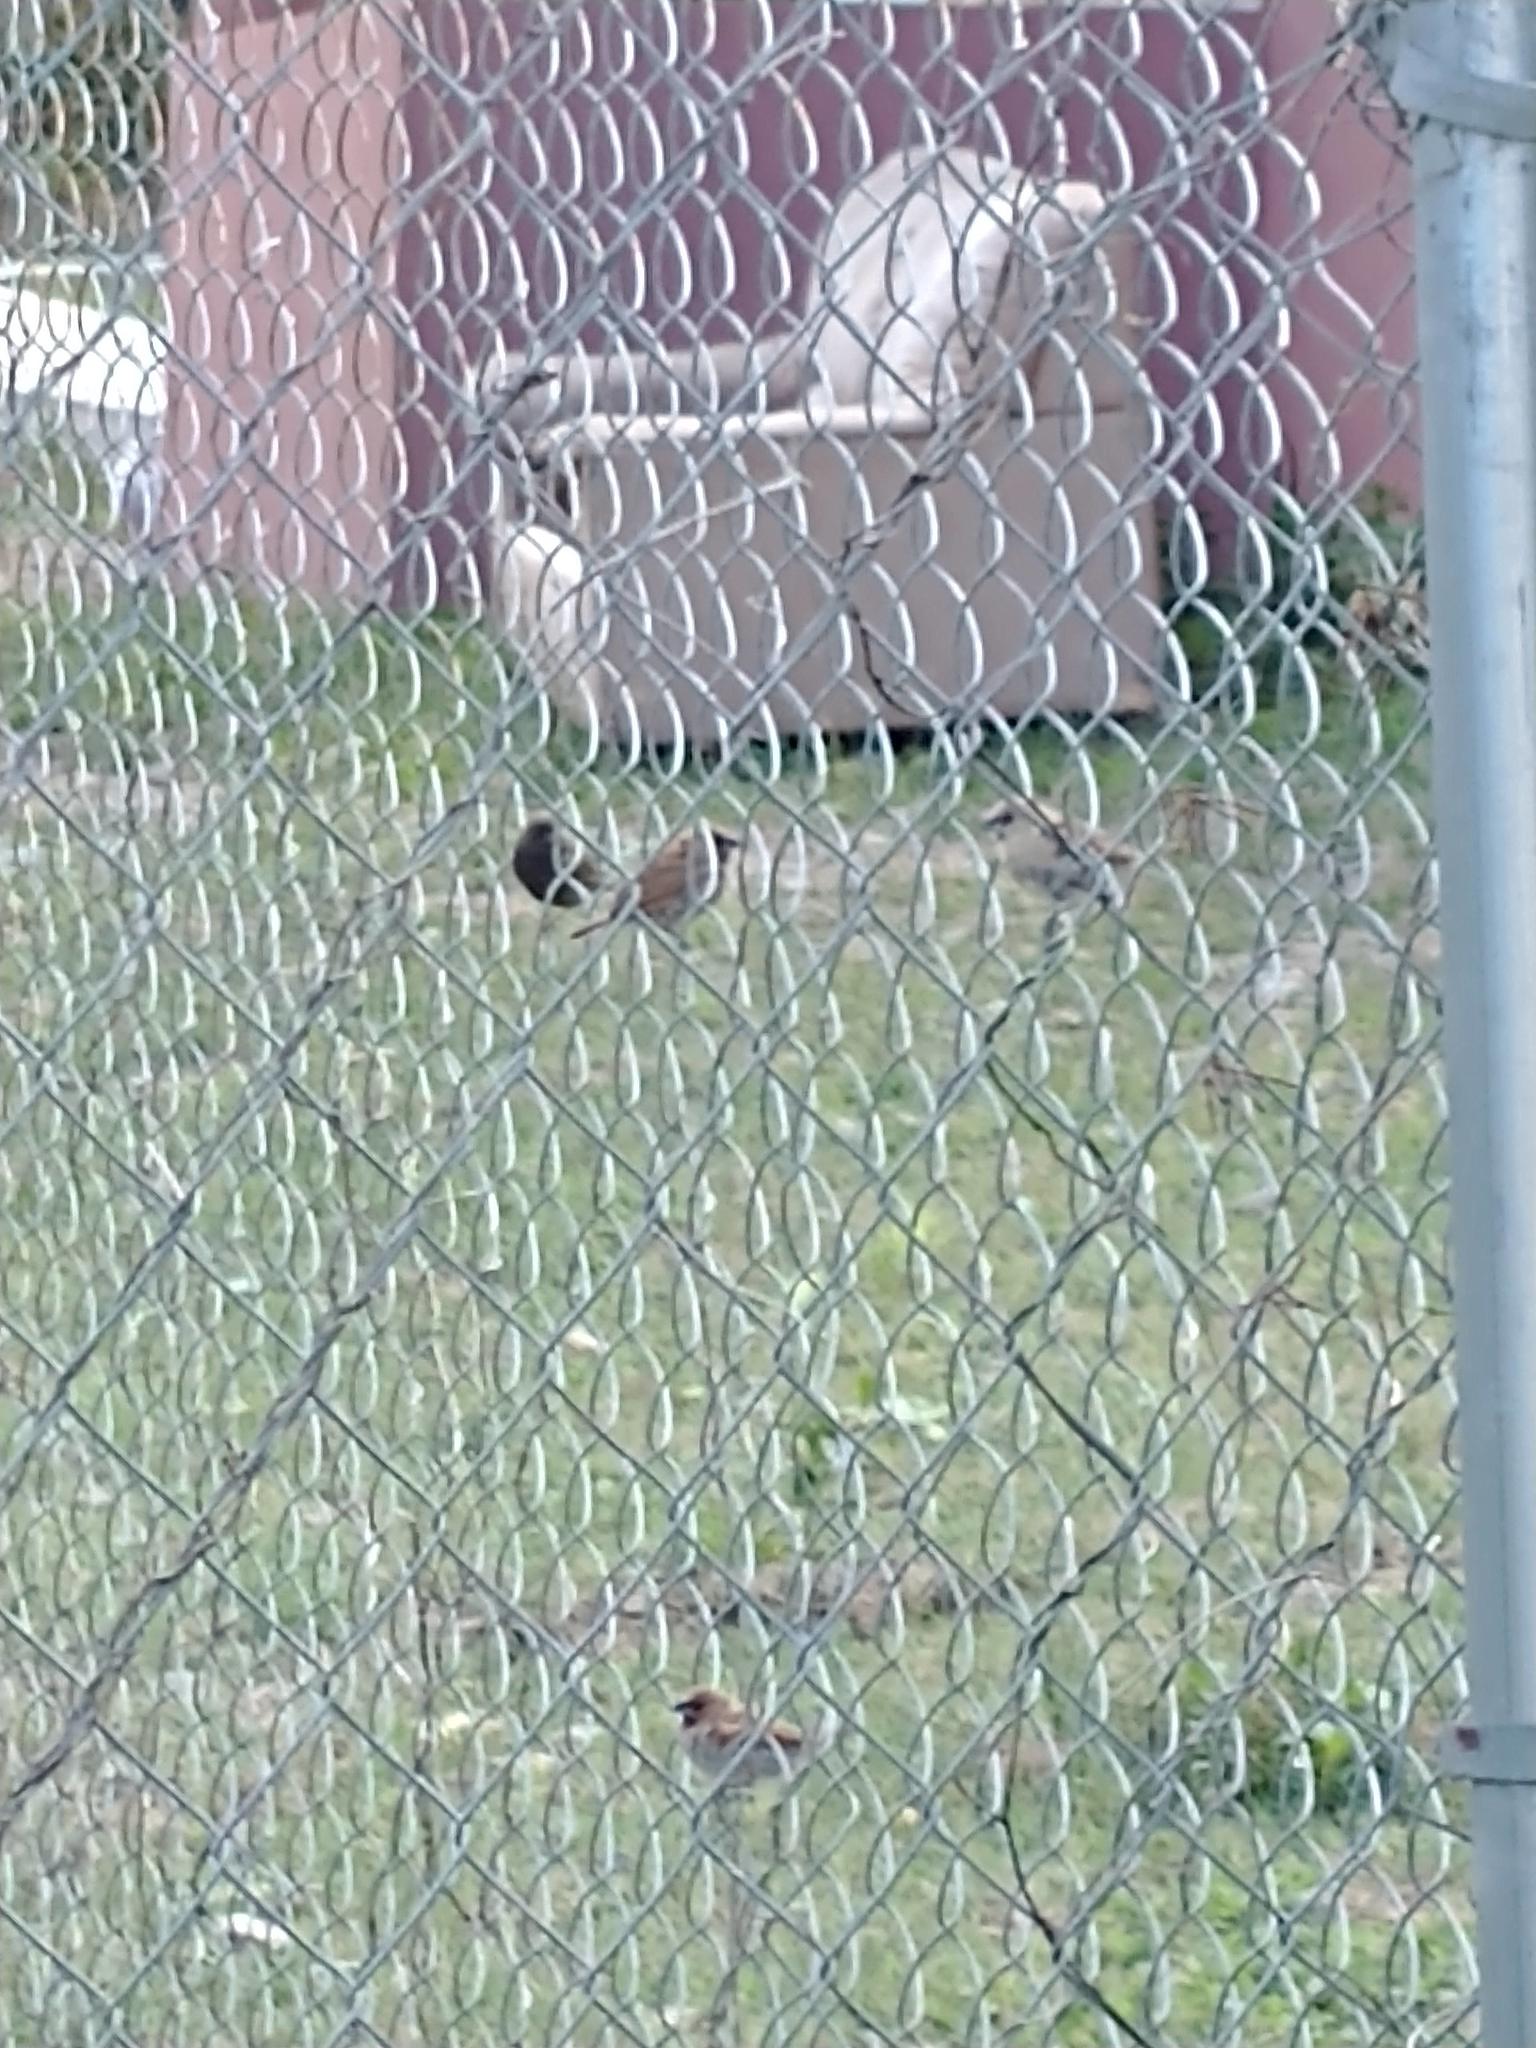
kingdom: Animalia
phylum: Chordata
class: Aves
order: Passeriformes
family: Estrildidae
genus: Lonchura
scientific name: Lonchura punctulata
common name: Scaly-breasted munia
